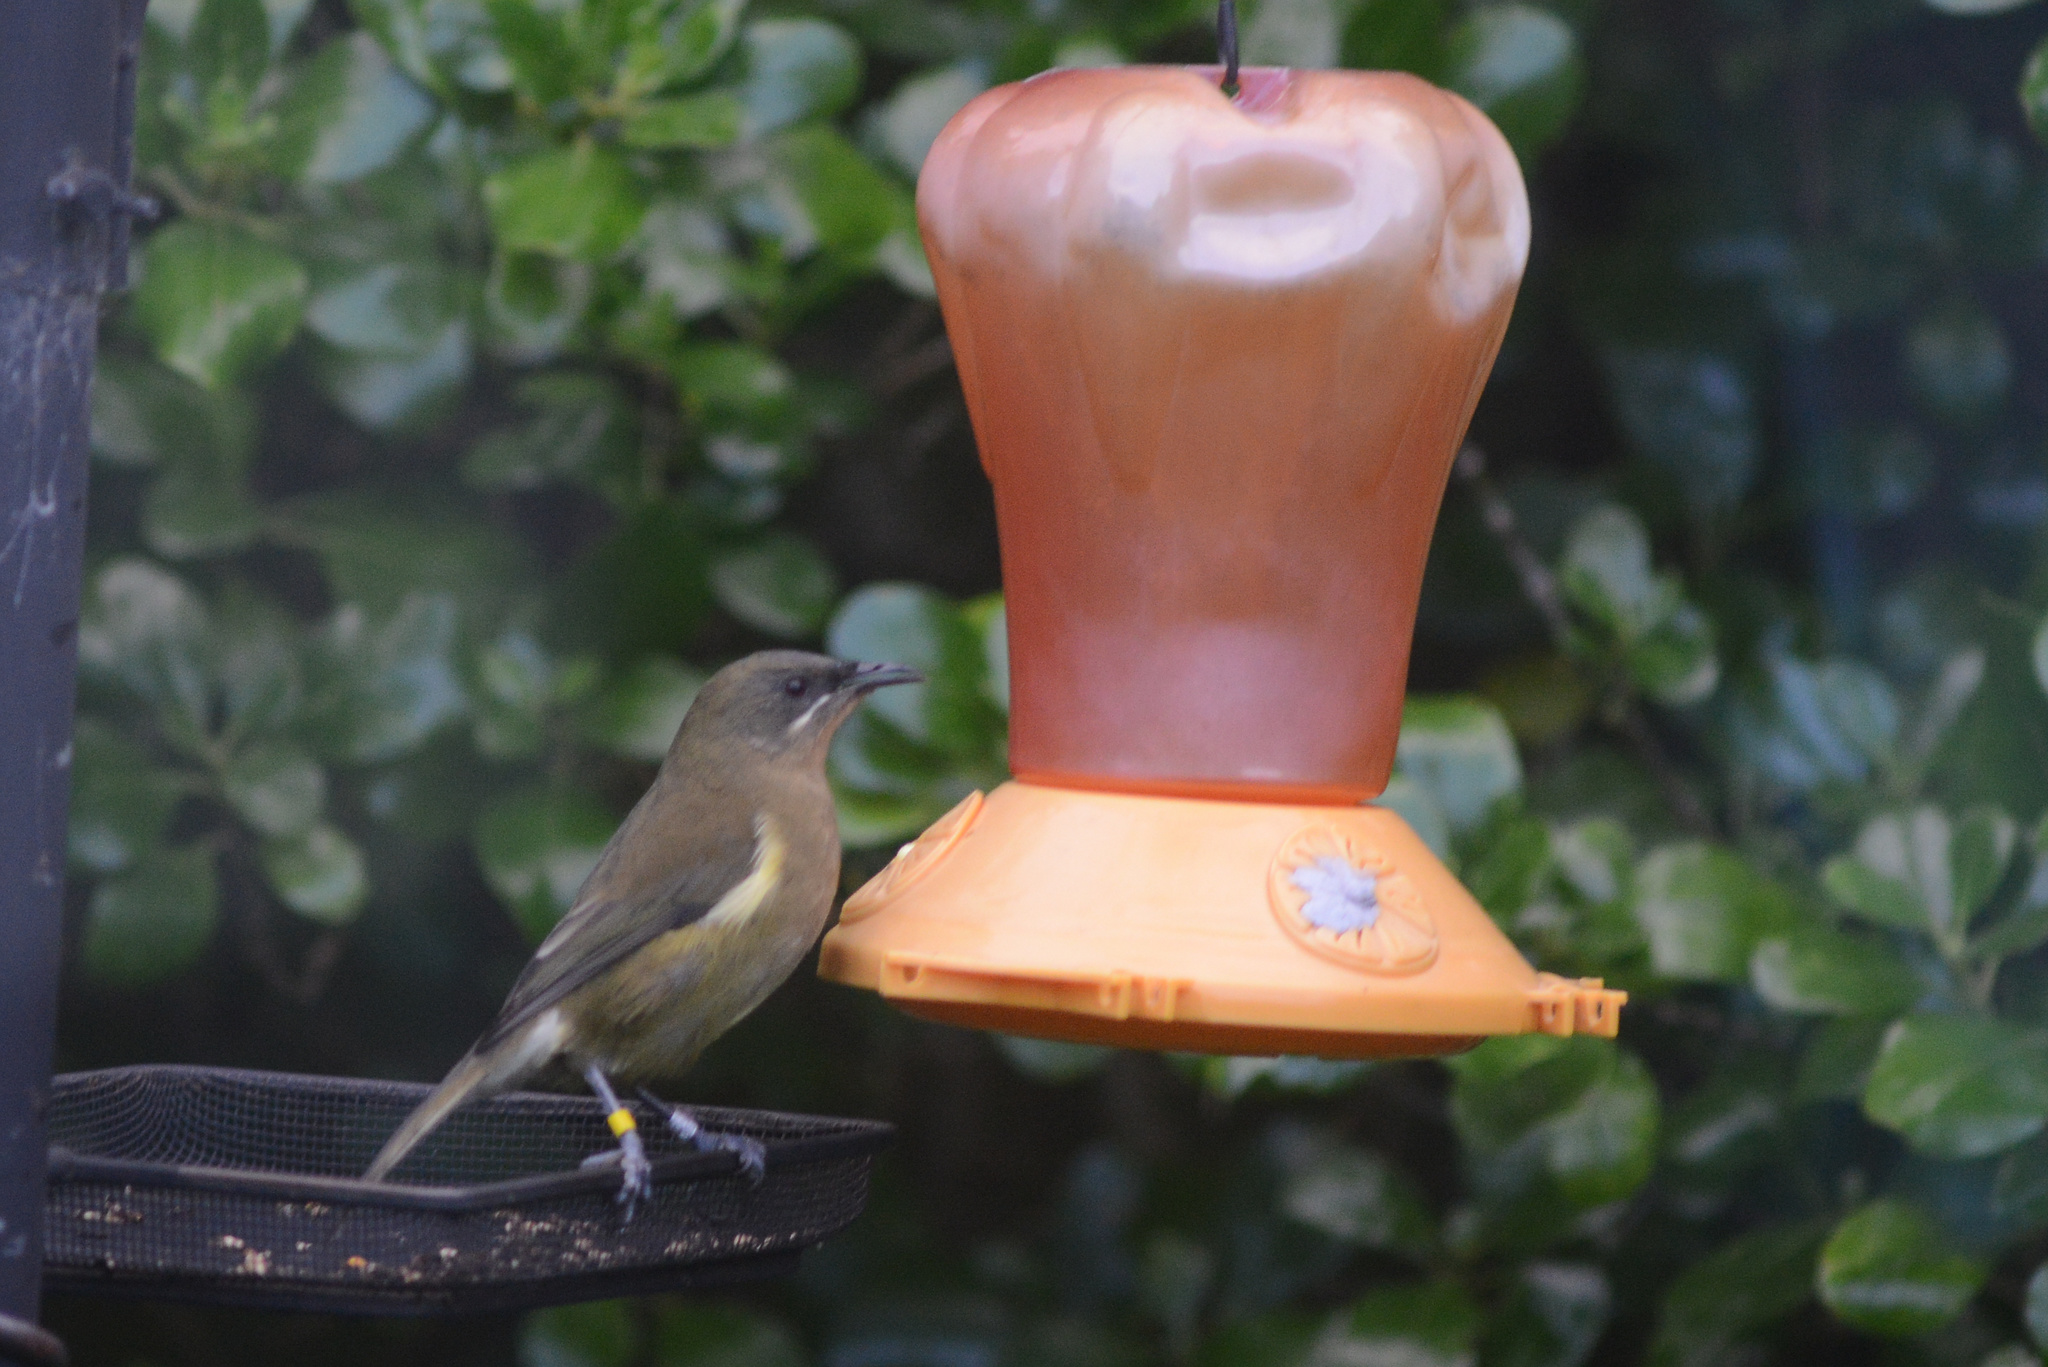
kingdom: Animalia
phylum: Chordata
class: Aves
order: Passeriformes
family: Meliphagidae
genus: Anthornis
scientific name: Anthornis melanura
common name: New zealand bellbird
